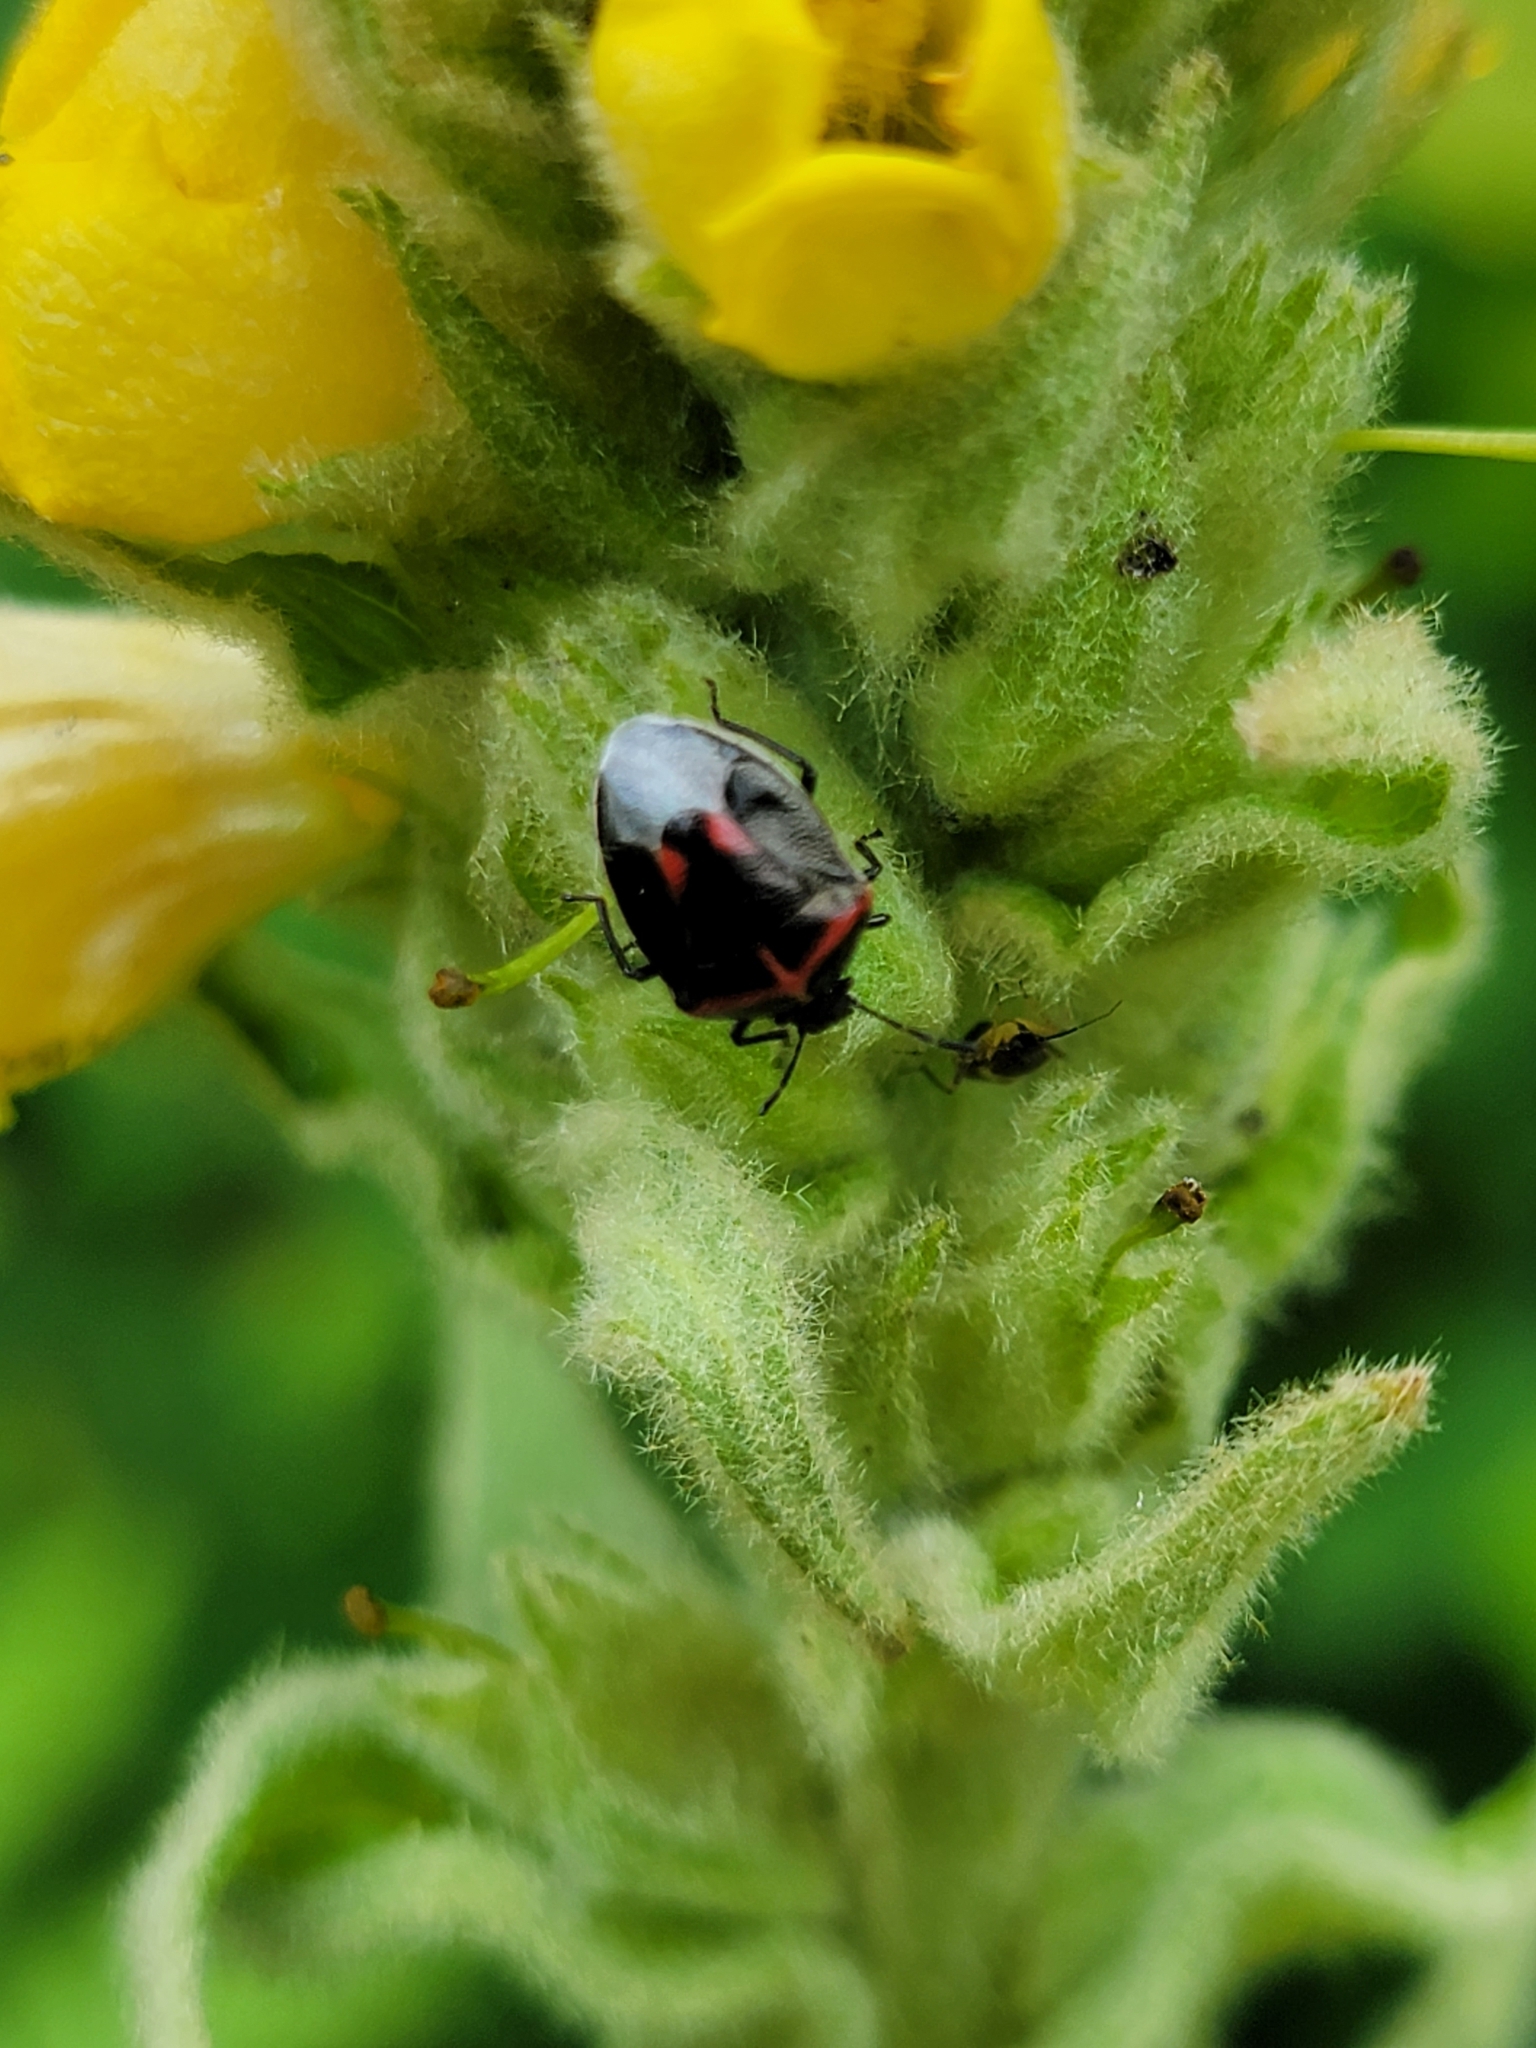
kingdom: Animalia
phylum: Arthropoda
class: Insecta
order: Hemiptera
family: Pentatomidae
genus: Cosmopepla
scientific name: Cosmopepla lintneriana
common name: Twice-stabbed stink bug
